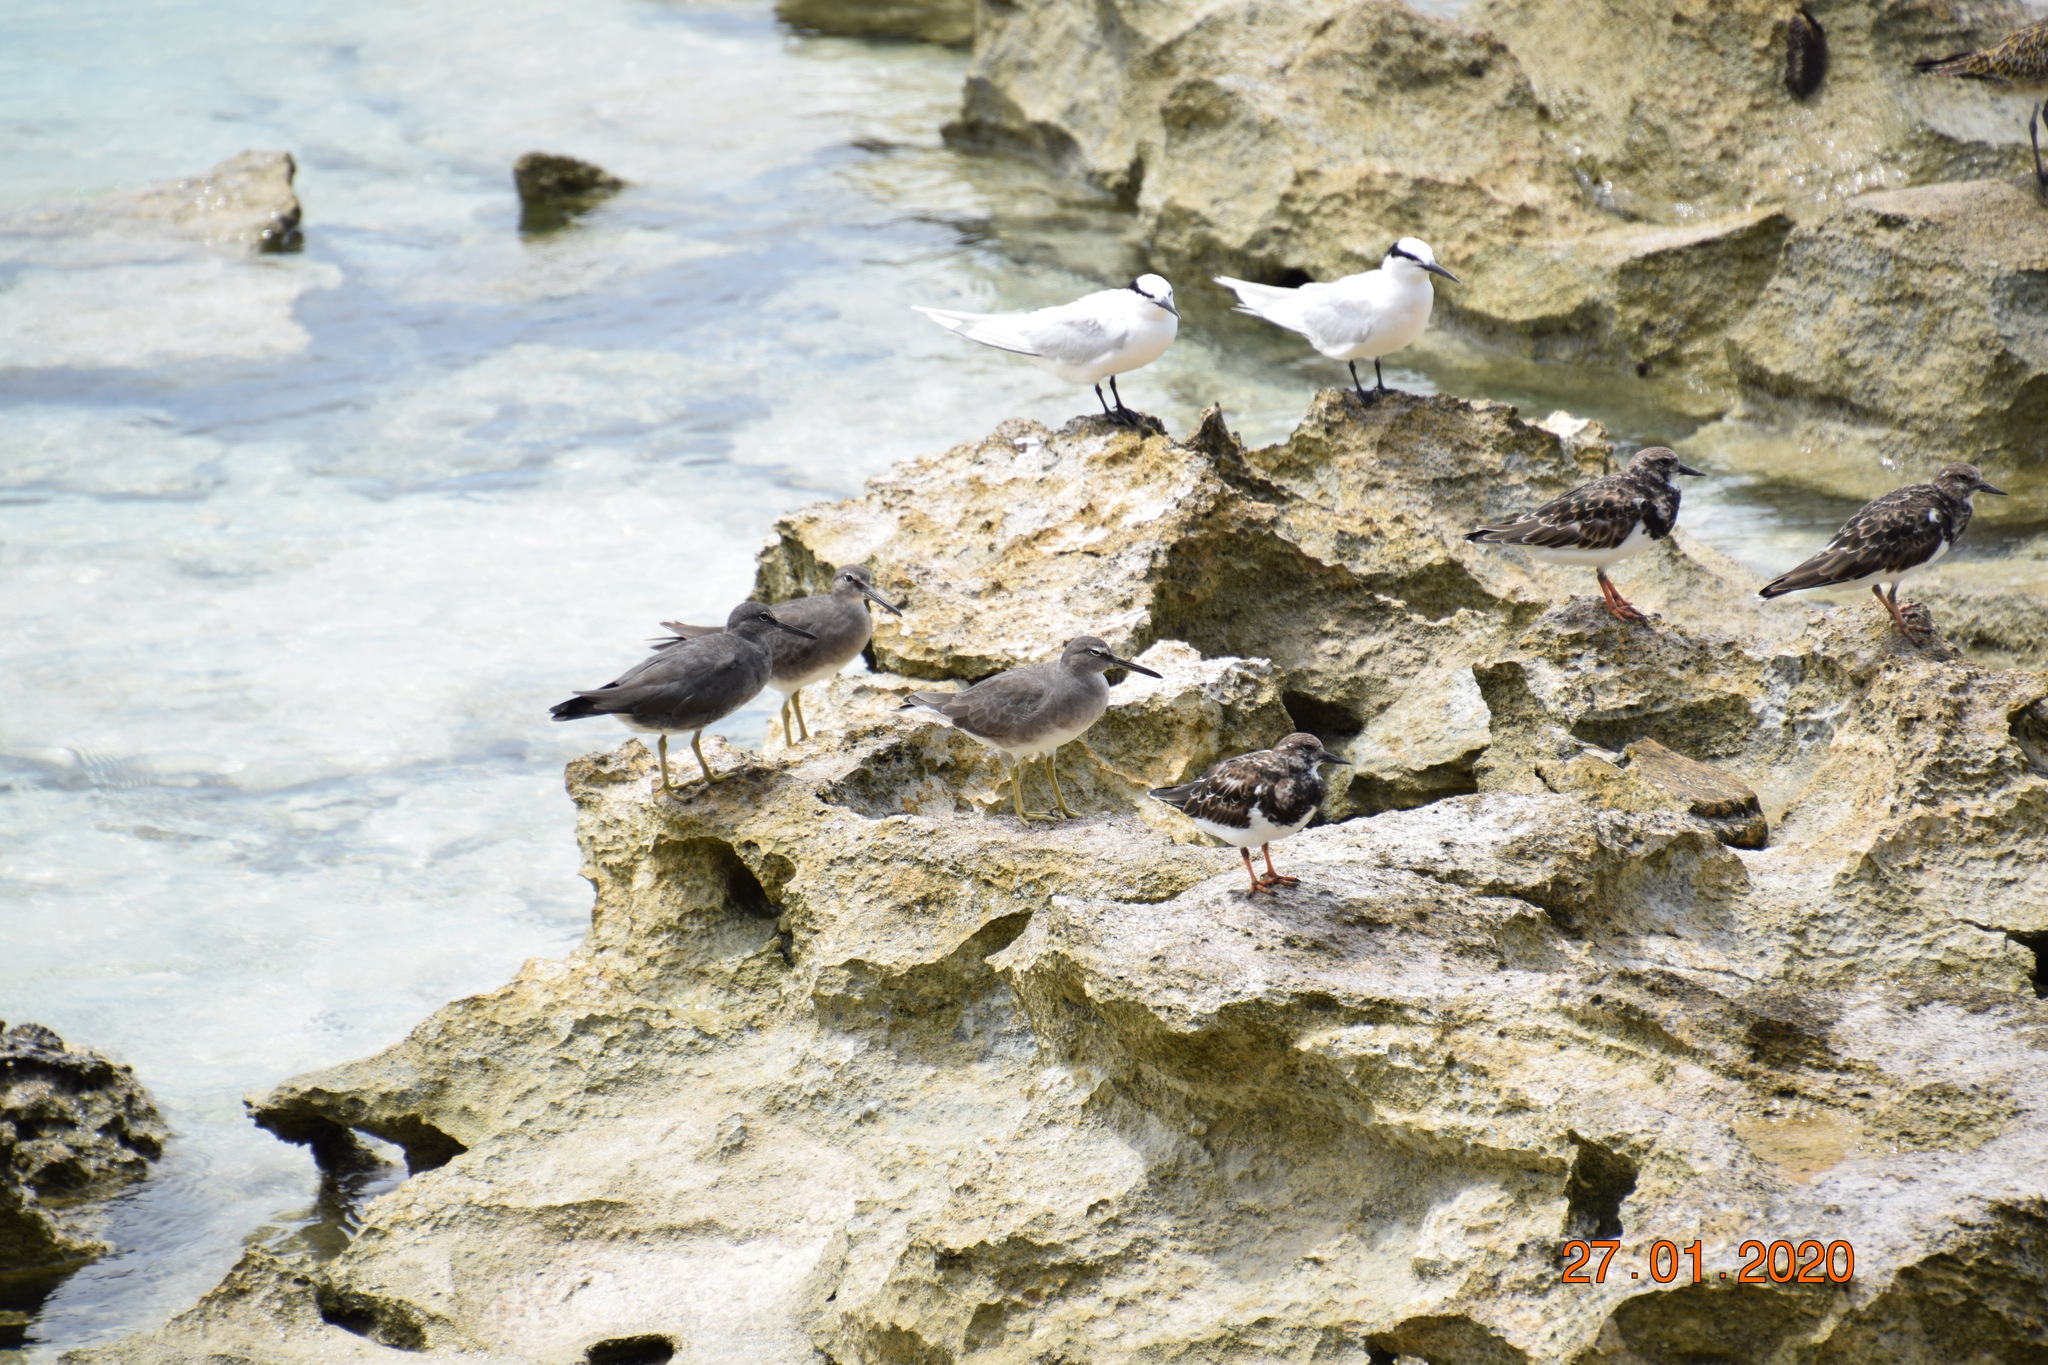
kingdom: Animalia
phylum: Chordata
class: Aves
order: Charadriiformes
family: Scolopacidae
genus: Tringa
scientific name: Tringa incana
